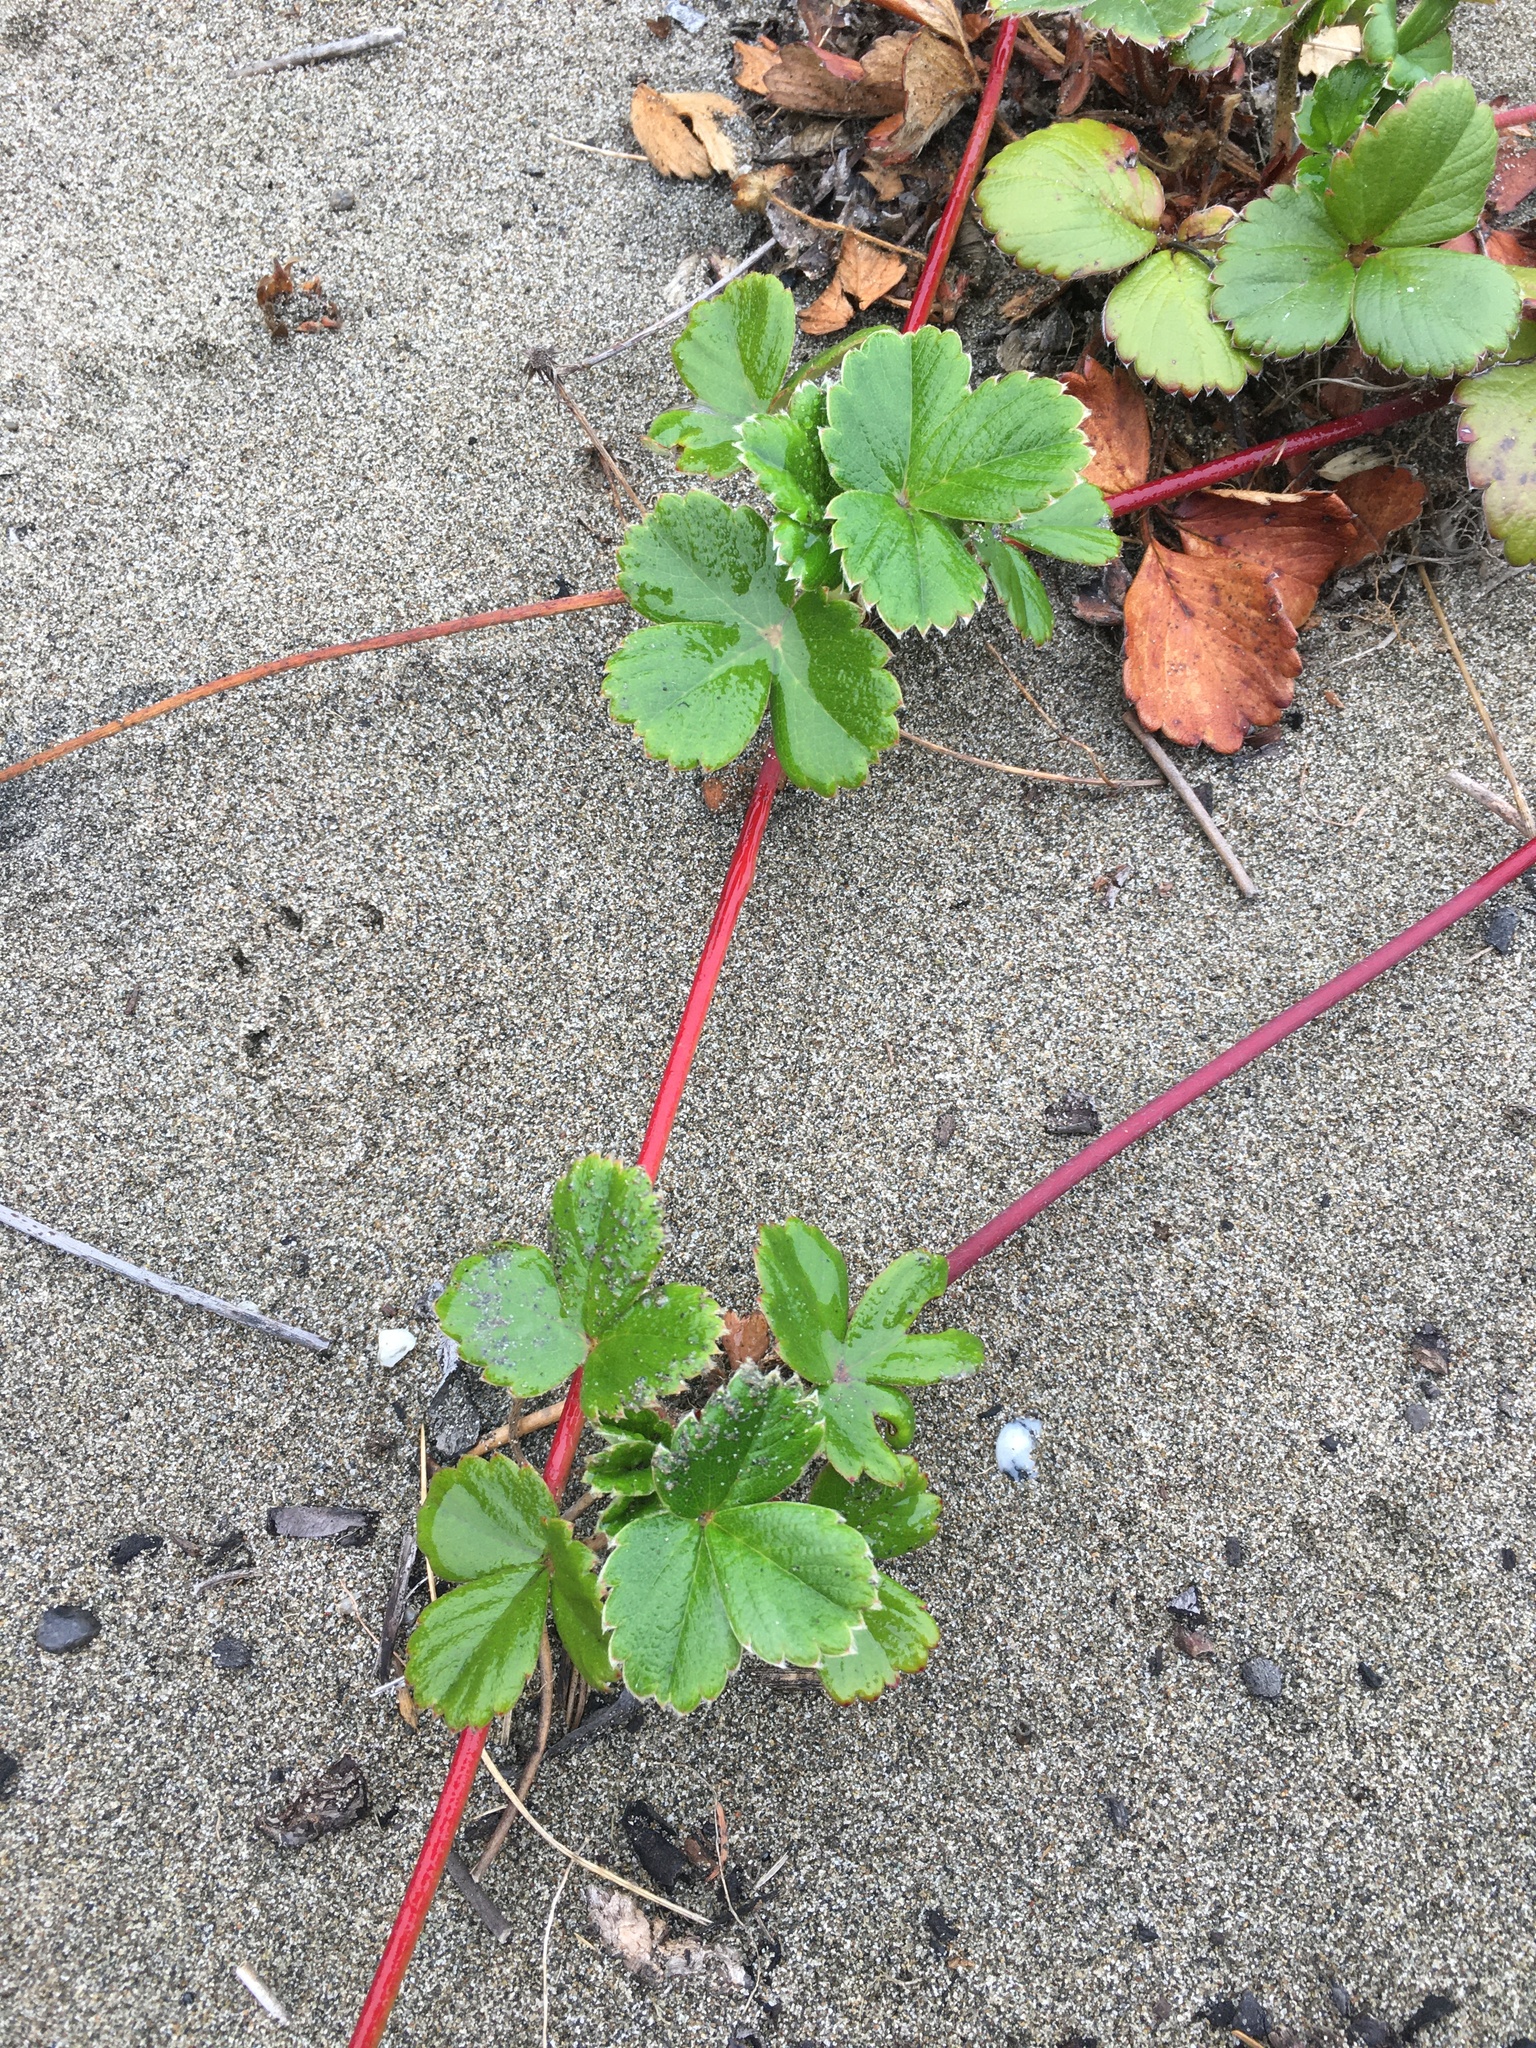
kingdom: Plantae
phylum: Tracheophyta
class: Magnoliopsida
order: Rosales
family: Rosaceae
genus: Fragaria
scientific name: Fragaria chiloensis
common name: Beach strawberry
